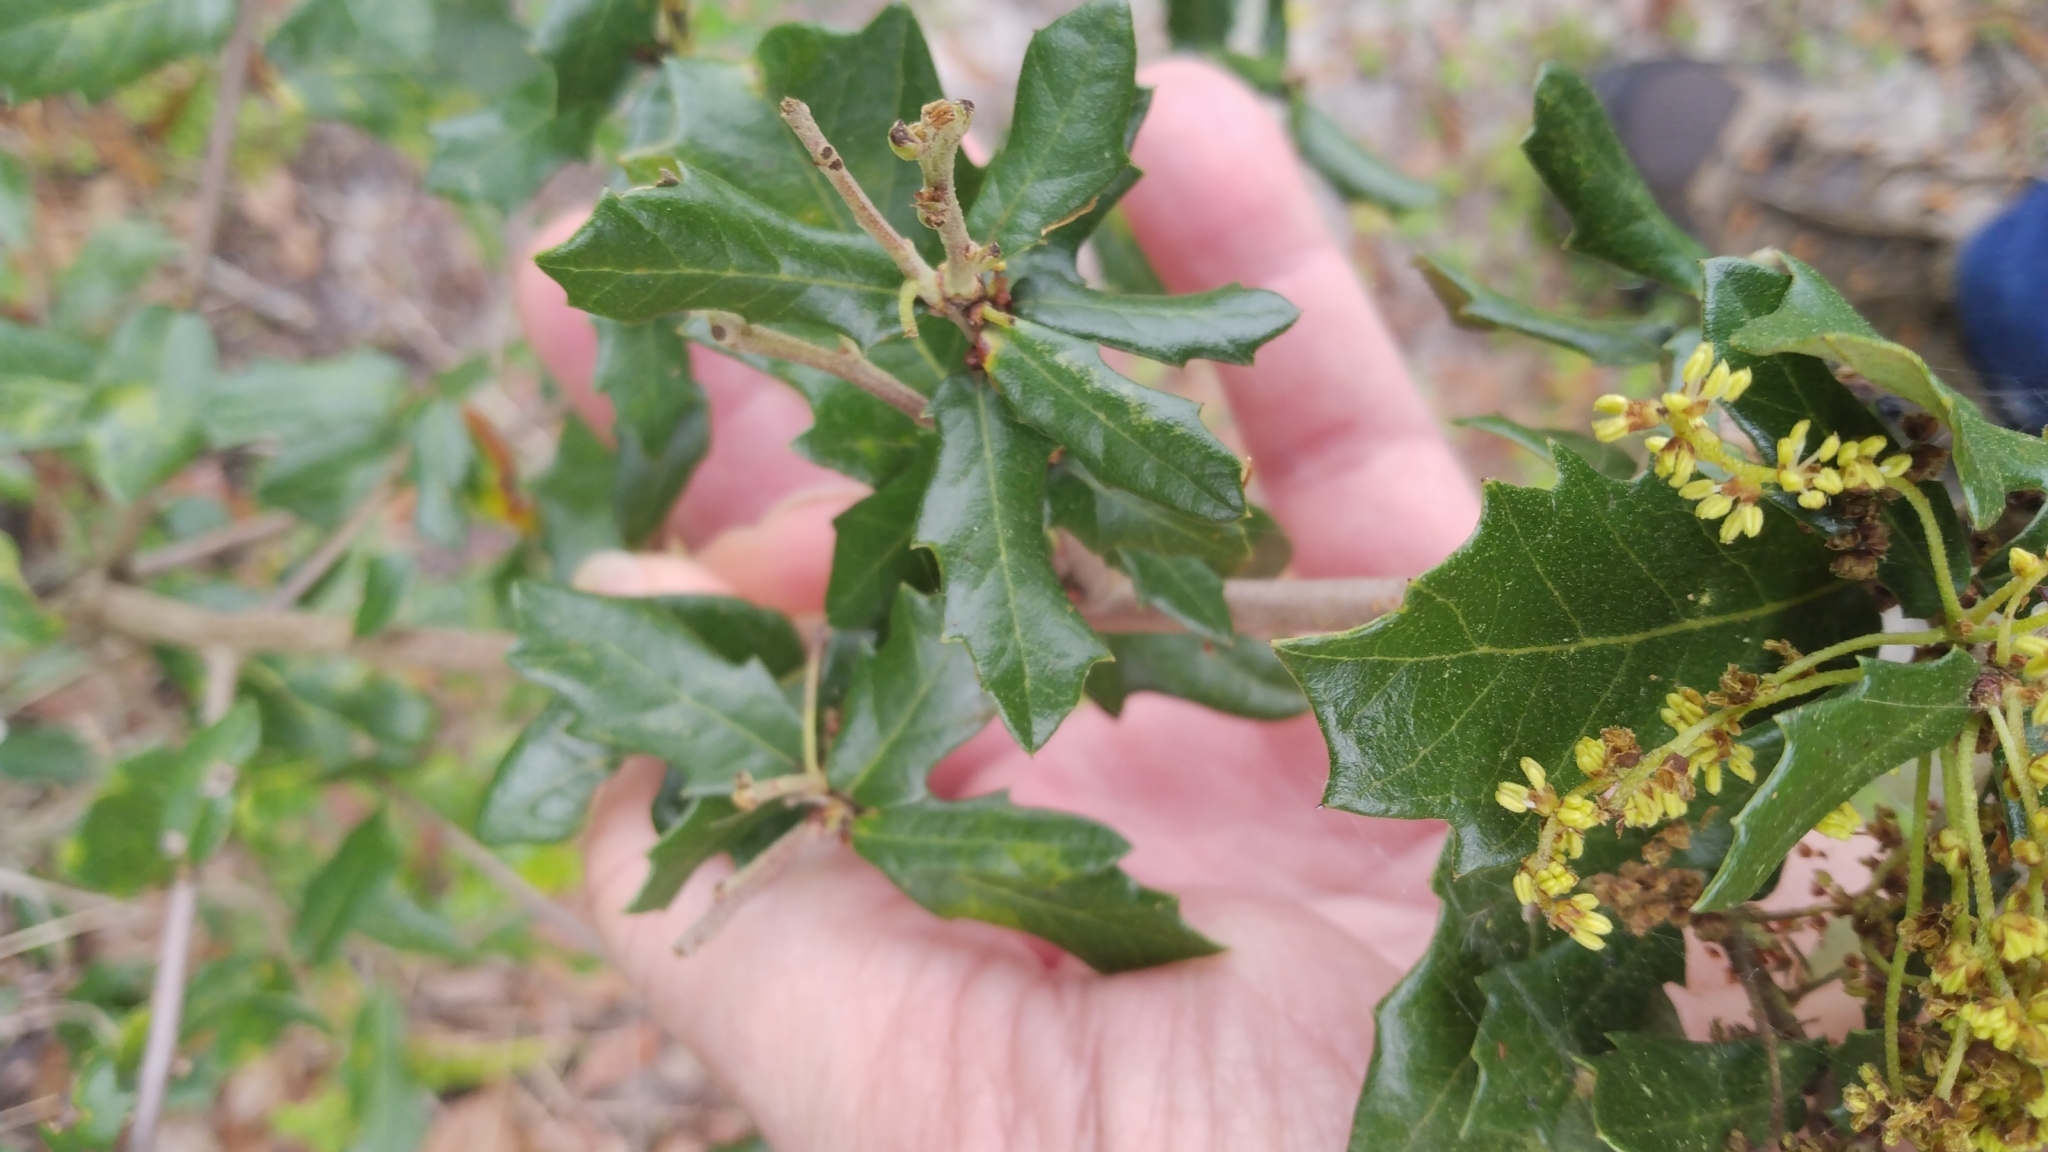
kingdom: Plantae
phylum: Tracheophyta
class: Magnoliopsida
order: Fagales
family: Fagaceae
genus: Quercus
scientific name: Quercus virginiana
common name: Southern live oak
